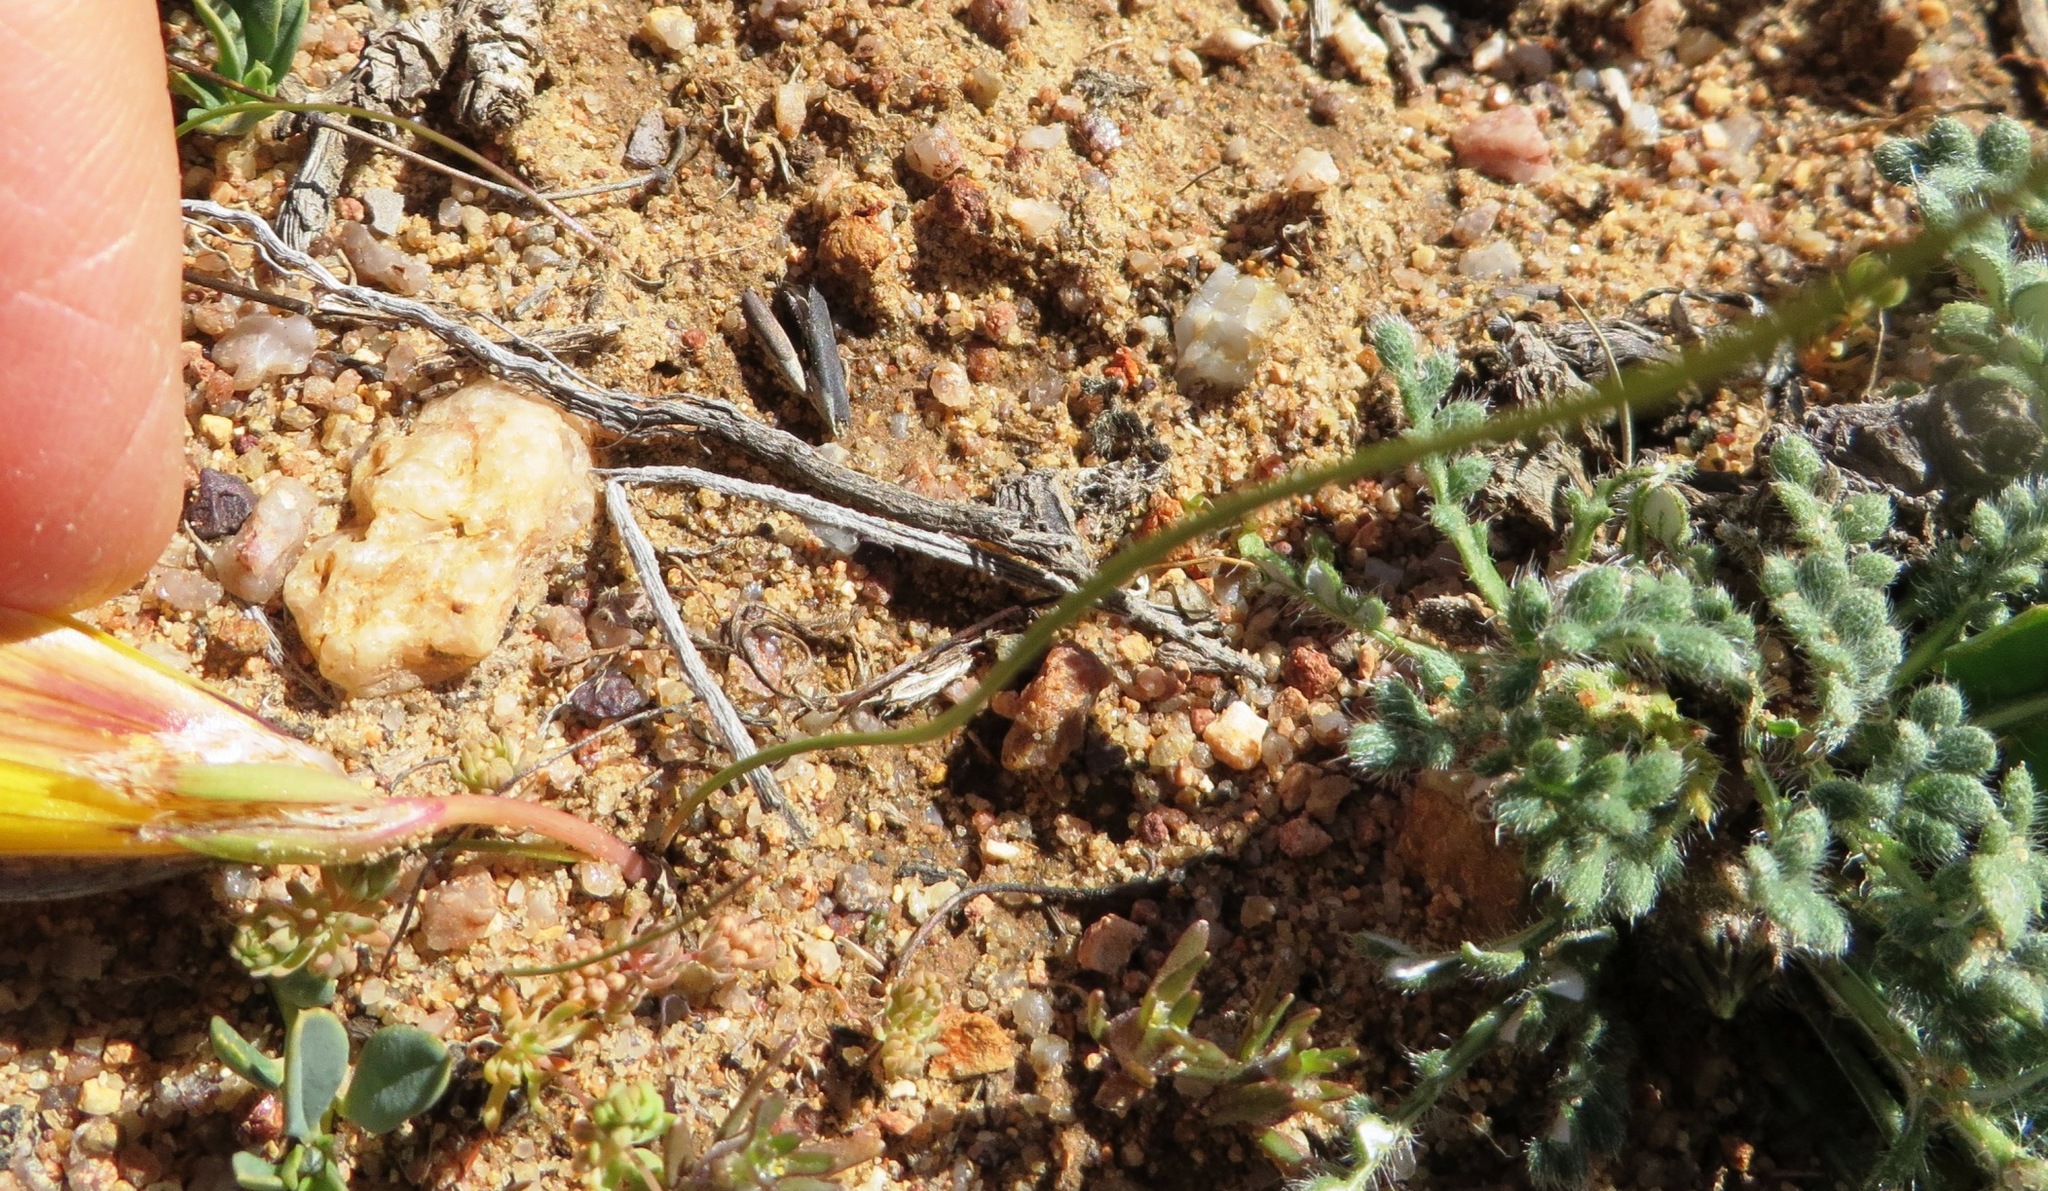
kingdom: Plantae
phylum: Tracheophyta
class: Liliopsida
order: Asparagales
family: Iridaceae
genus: Romulea
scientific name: Romulea citrina
